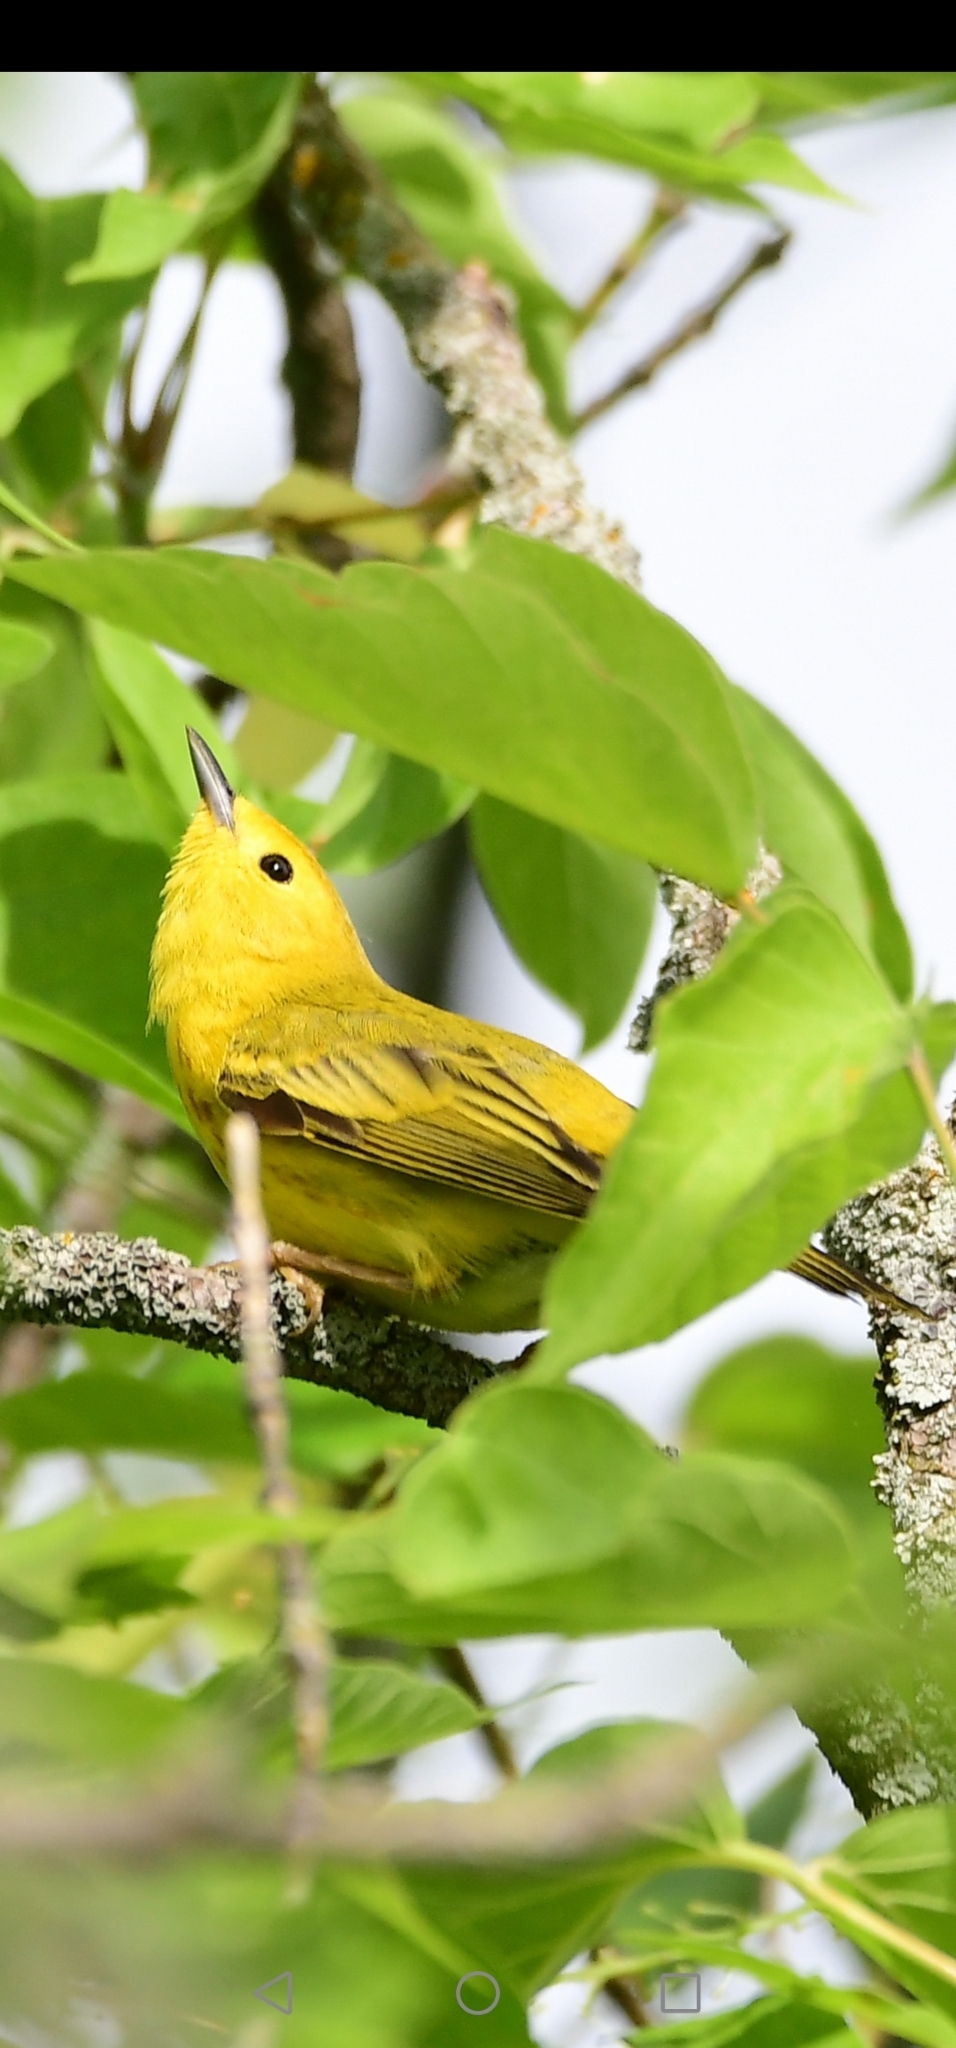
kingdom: Animalia
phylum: Chordata
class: Aves
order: Passeriformes
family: Parulidae
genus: Setophaga
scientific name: Setophaga petechia
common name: Yellow warbler
